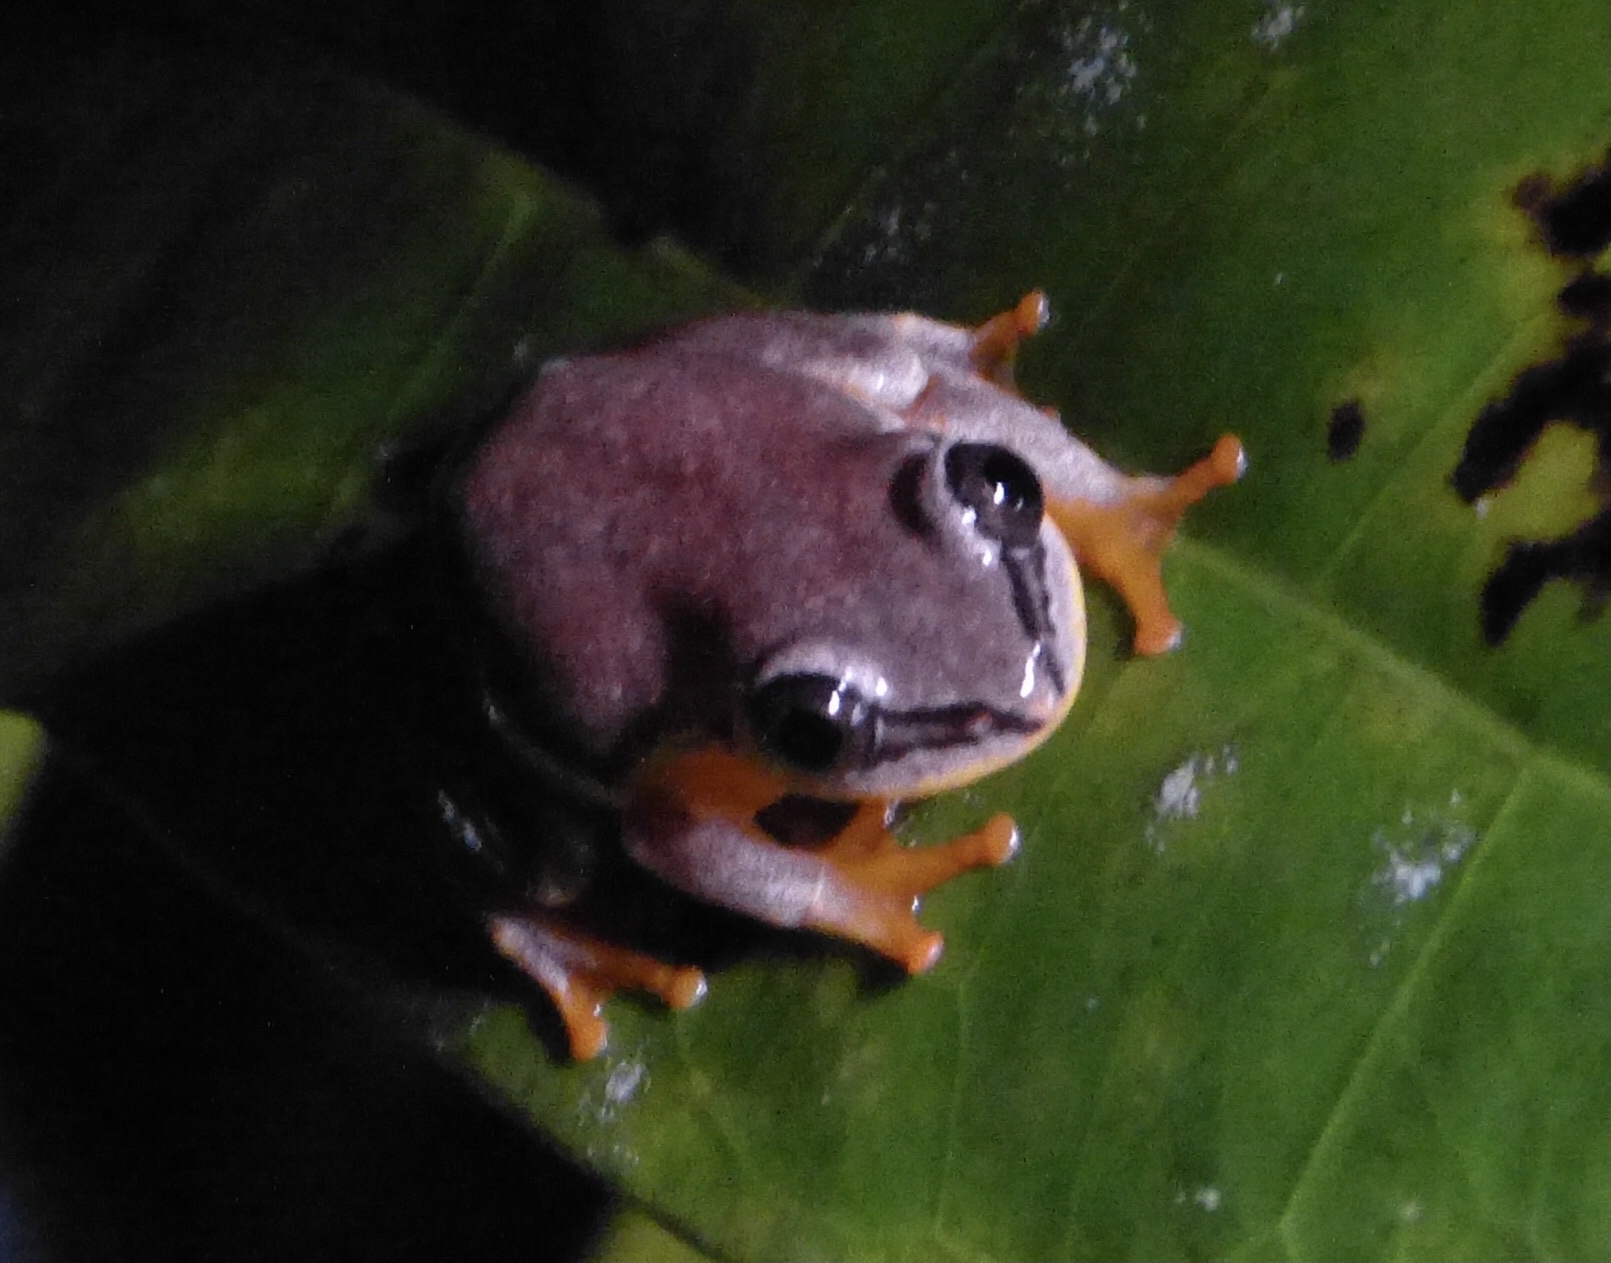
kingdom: Animalia
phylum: Chordata
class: Amphibia
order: Anura
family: Hyperoliidae
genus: Heterixalus
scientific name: Heterixalus madagascariensis
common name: Madagascar reed frog
